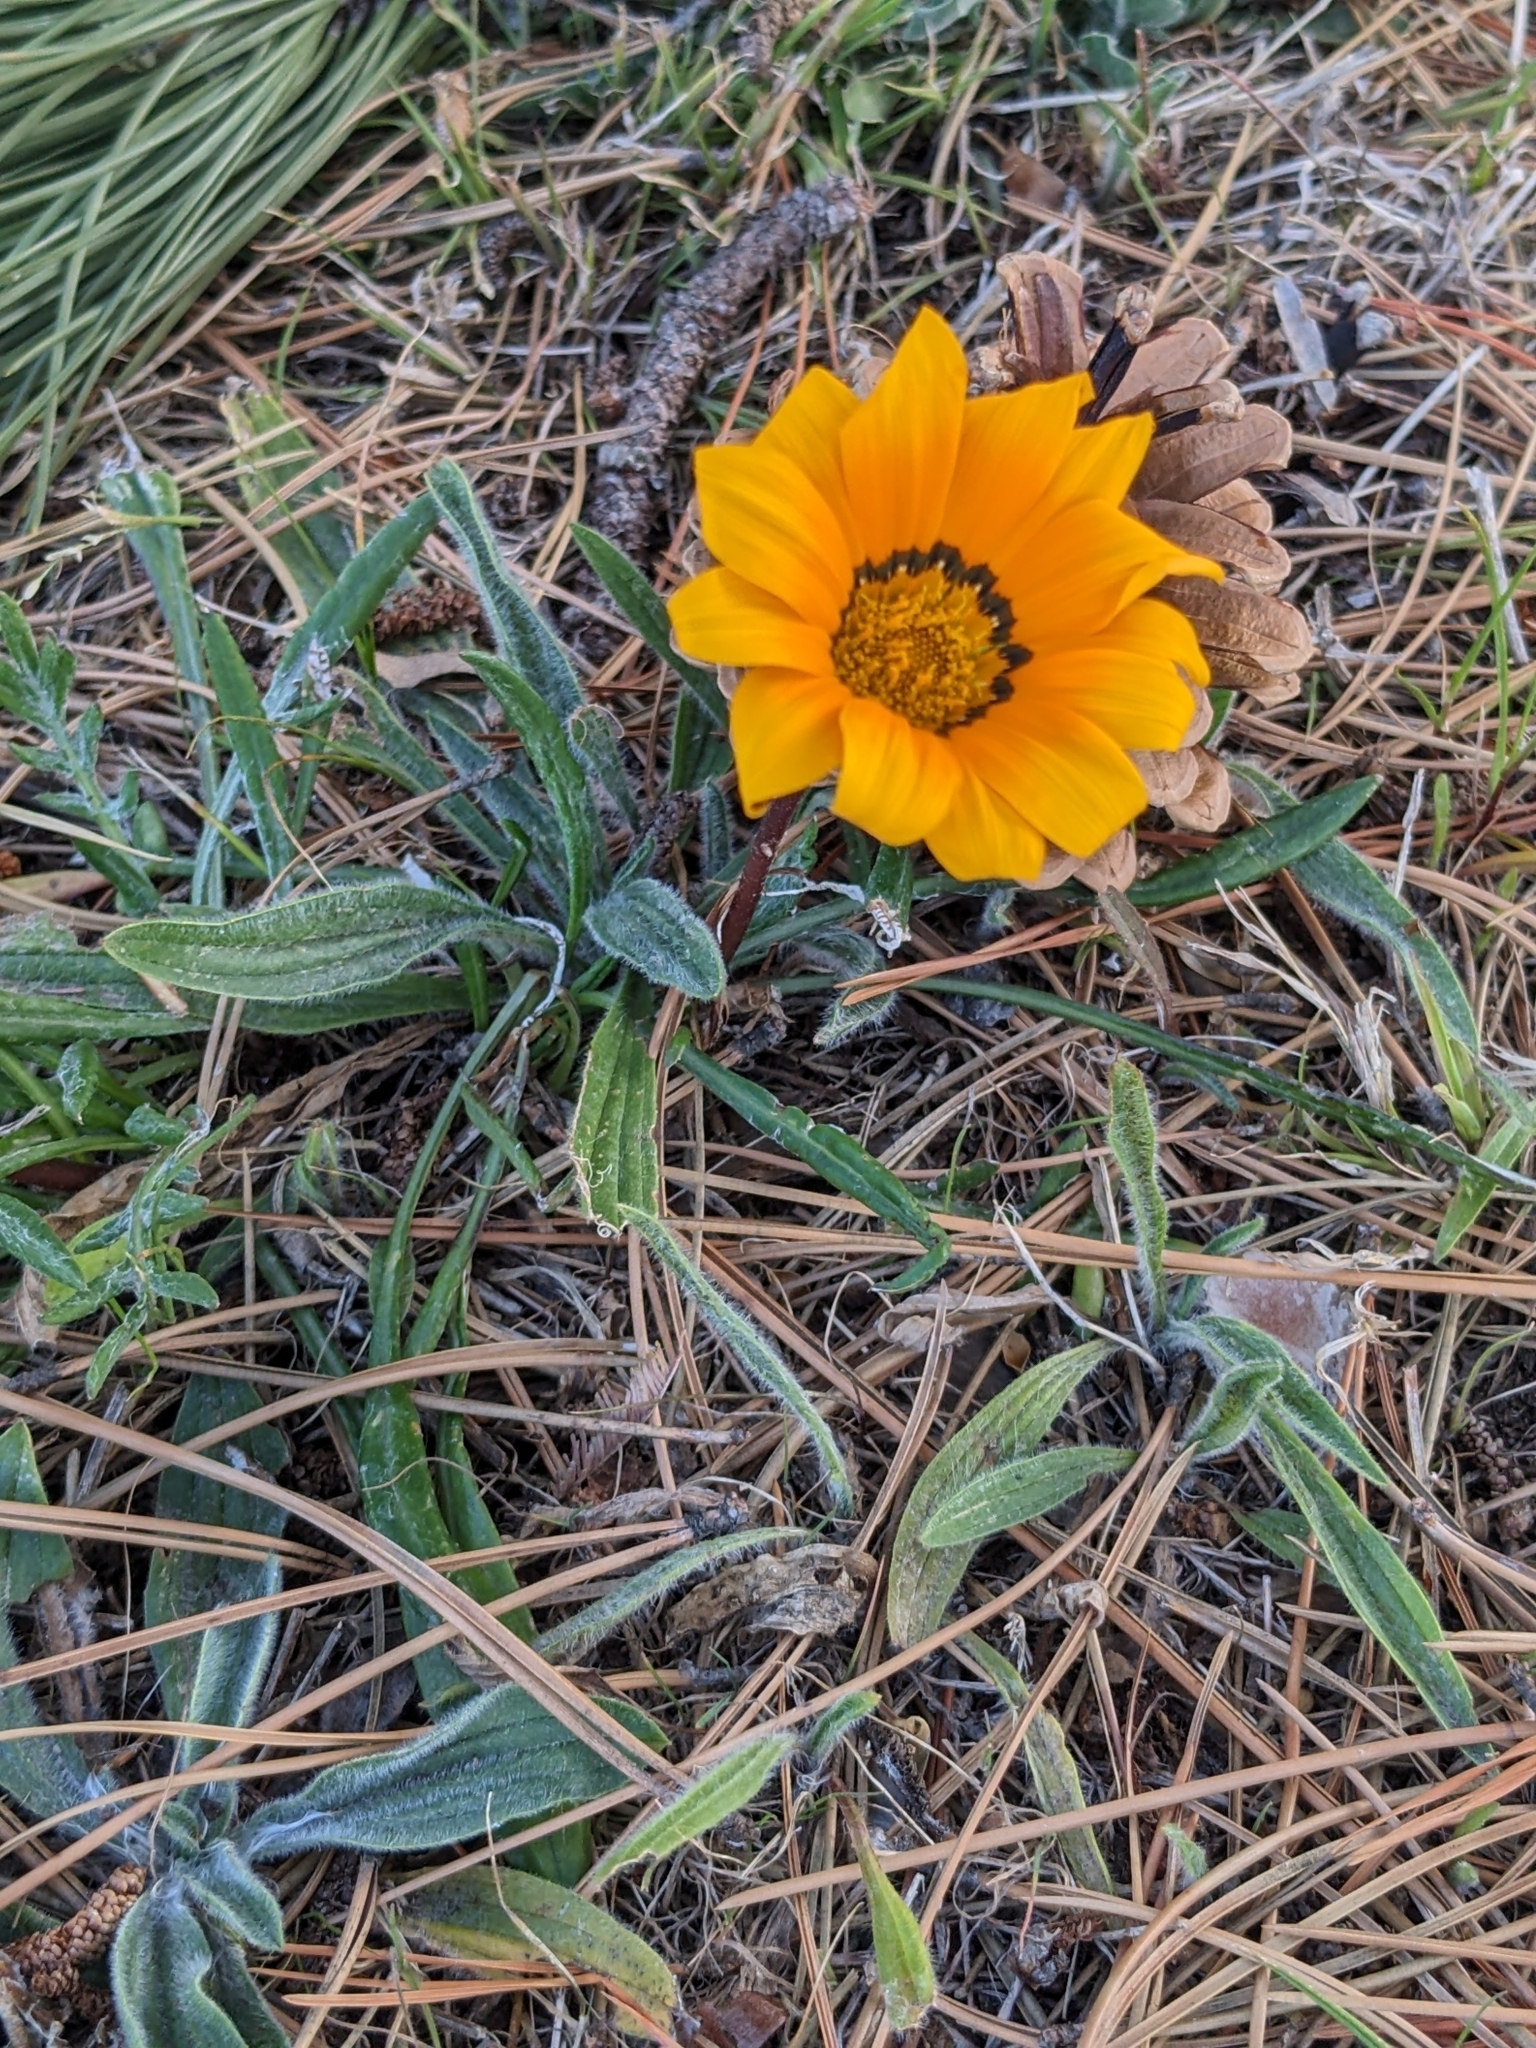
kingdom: Plantae
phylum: Tracheophyta
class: Magnoliopsida
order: Asterales
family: Asteraceae
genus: Gazania
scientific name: Gazania splendens
